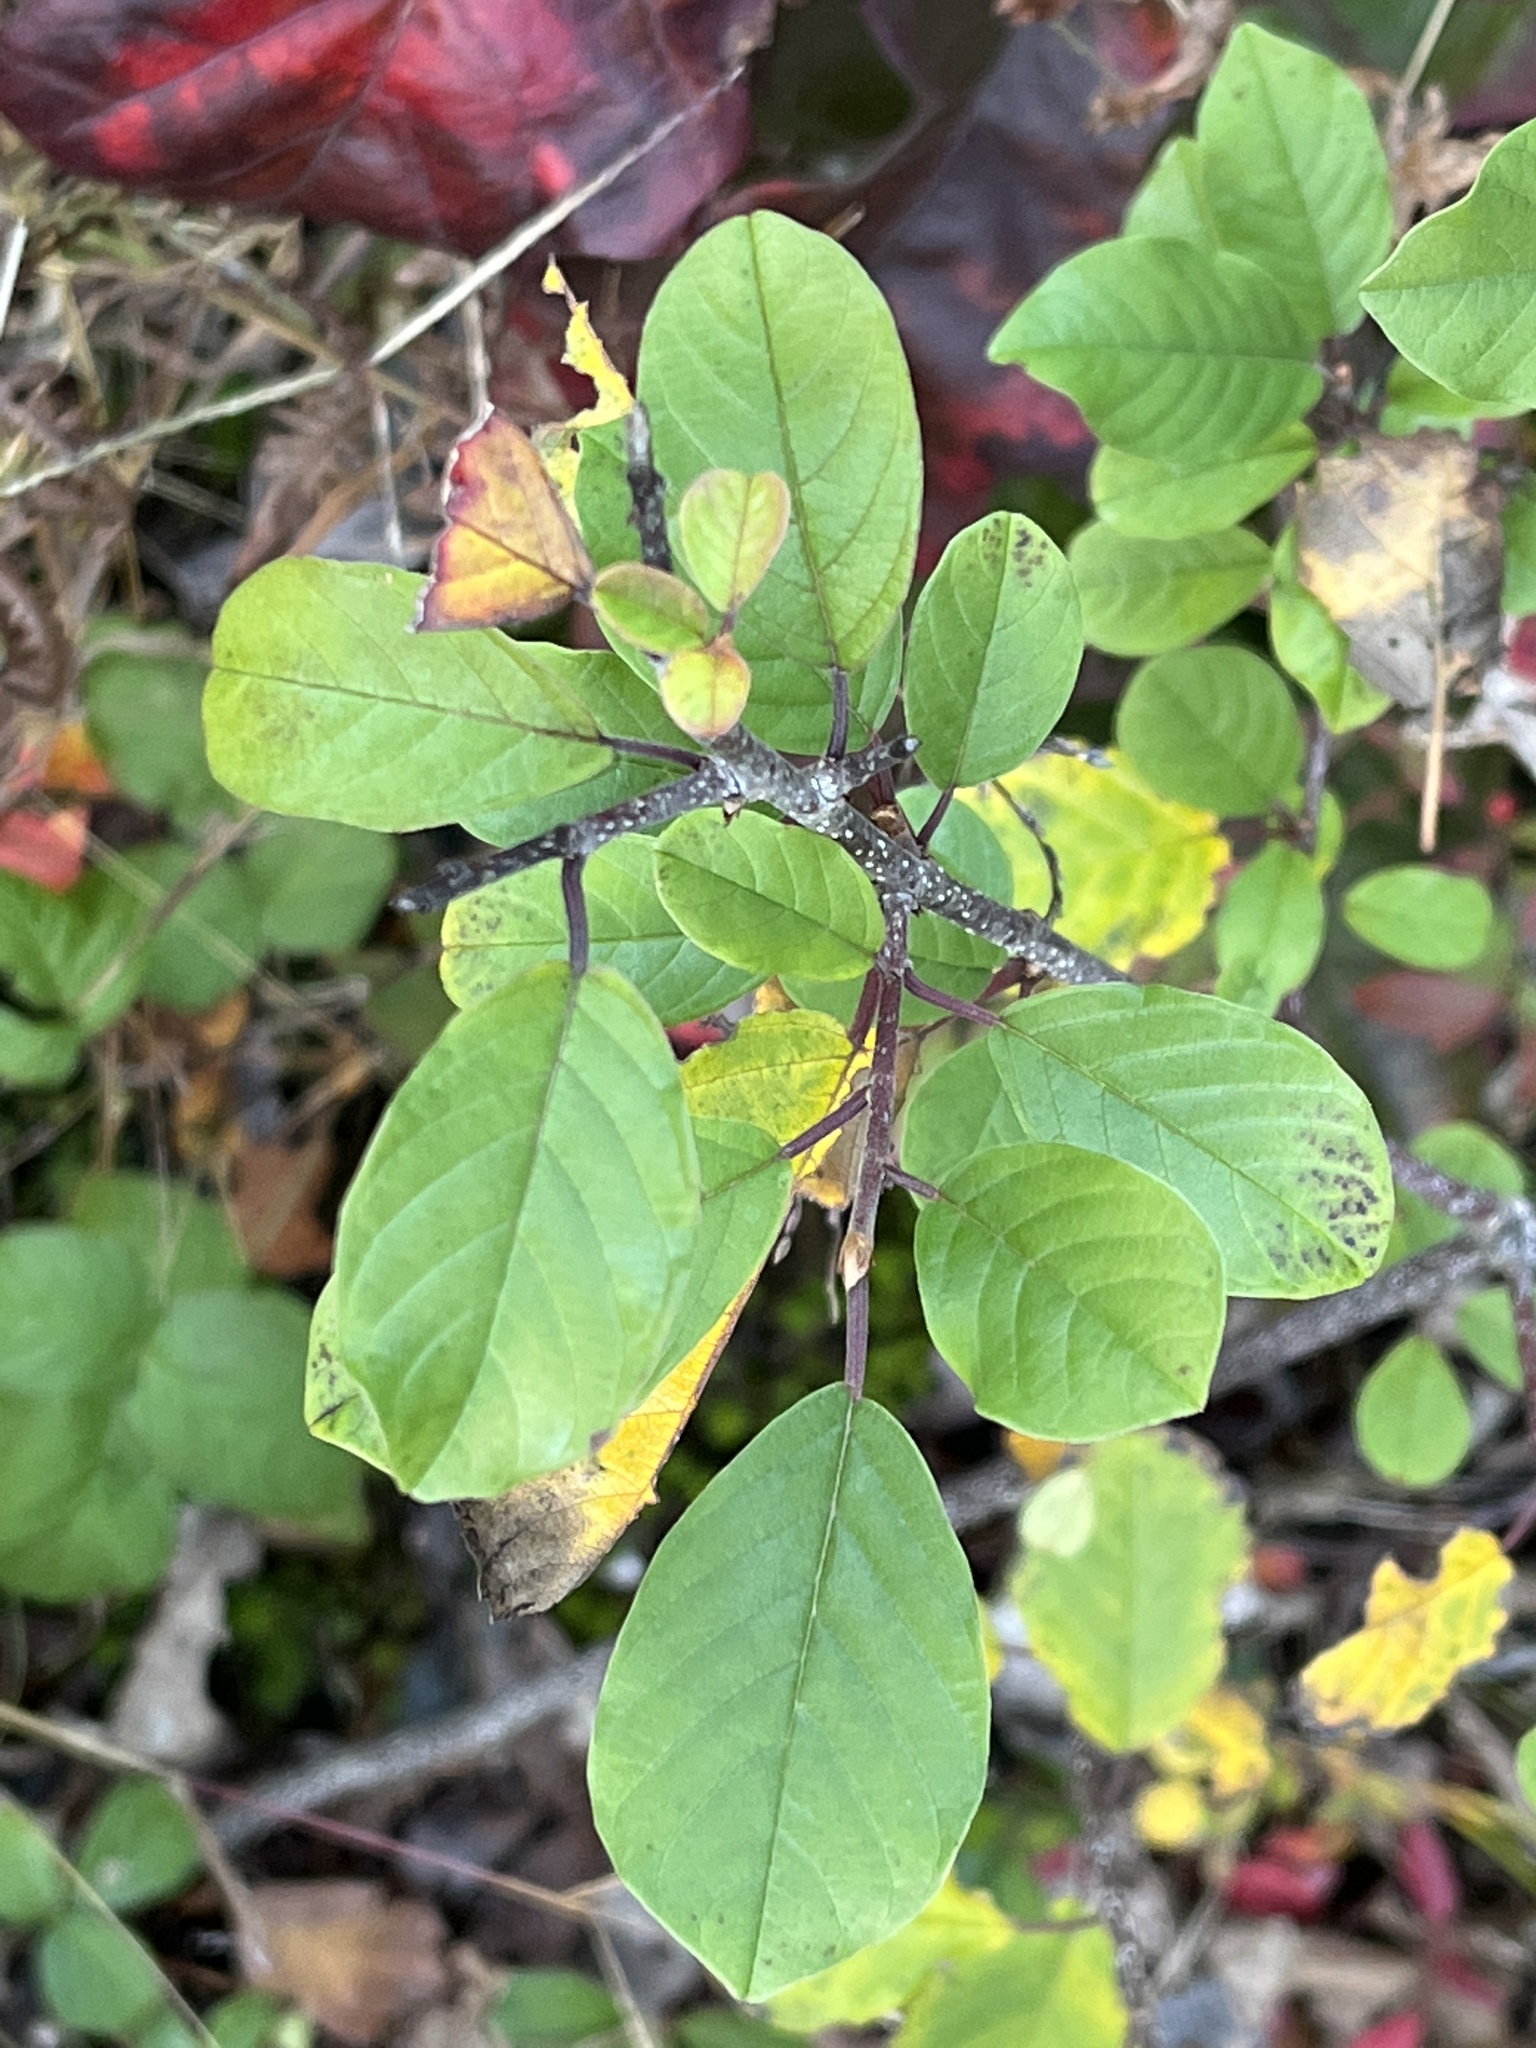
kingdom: Plantae
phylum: Tracheophyta
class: Magnoliopsida
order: Rosales
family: Rhamnaceae
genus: Frangula
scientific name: Frangula alnus
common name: Alder buckthorn
